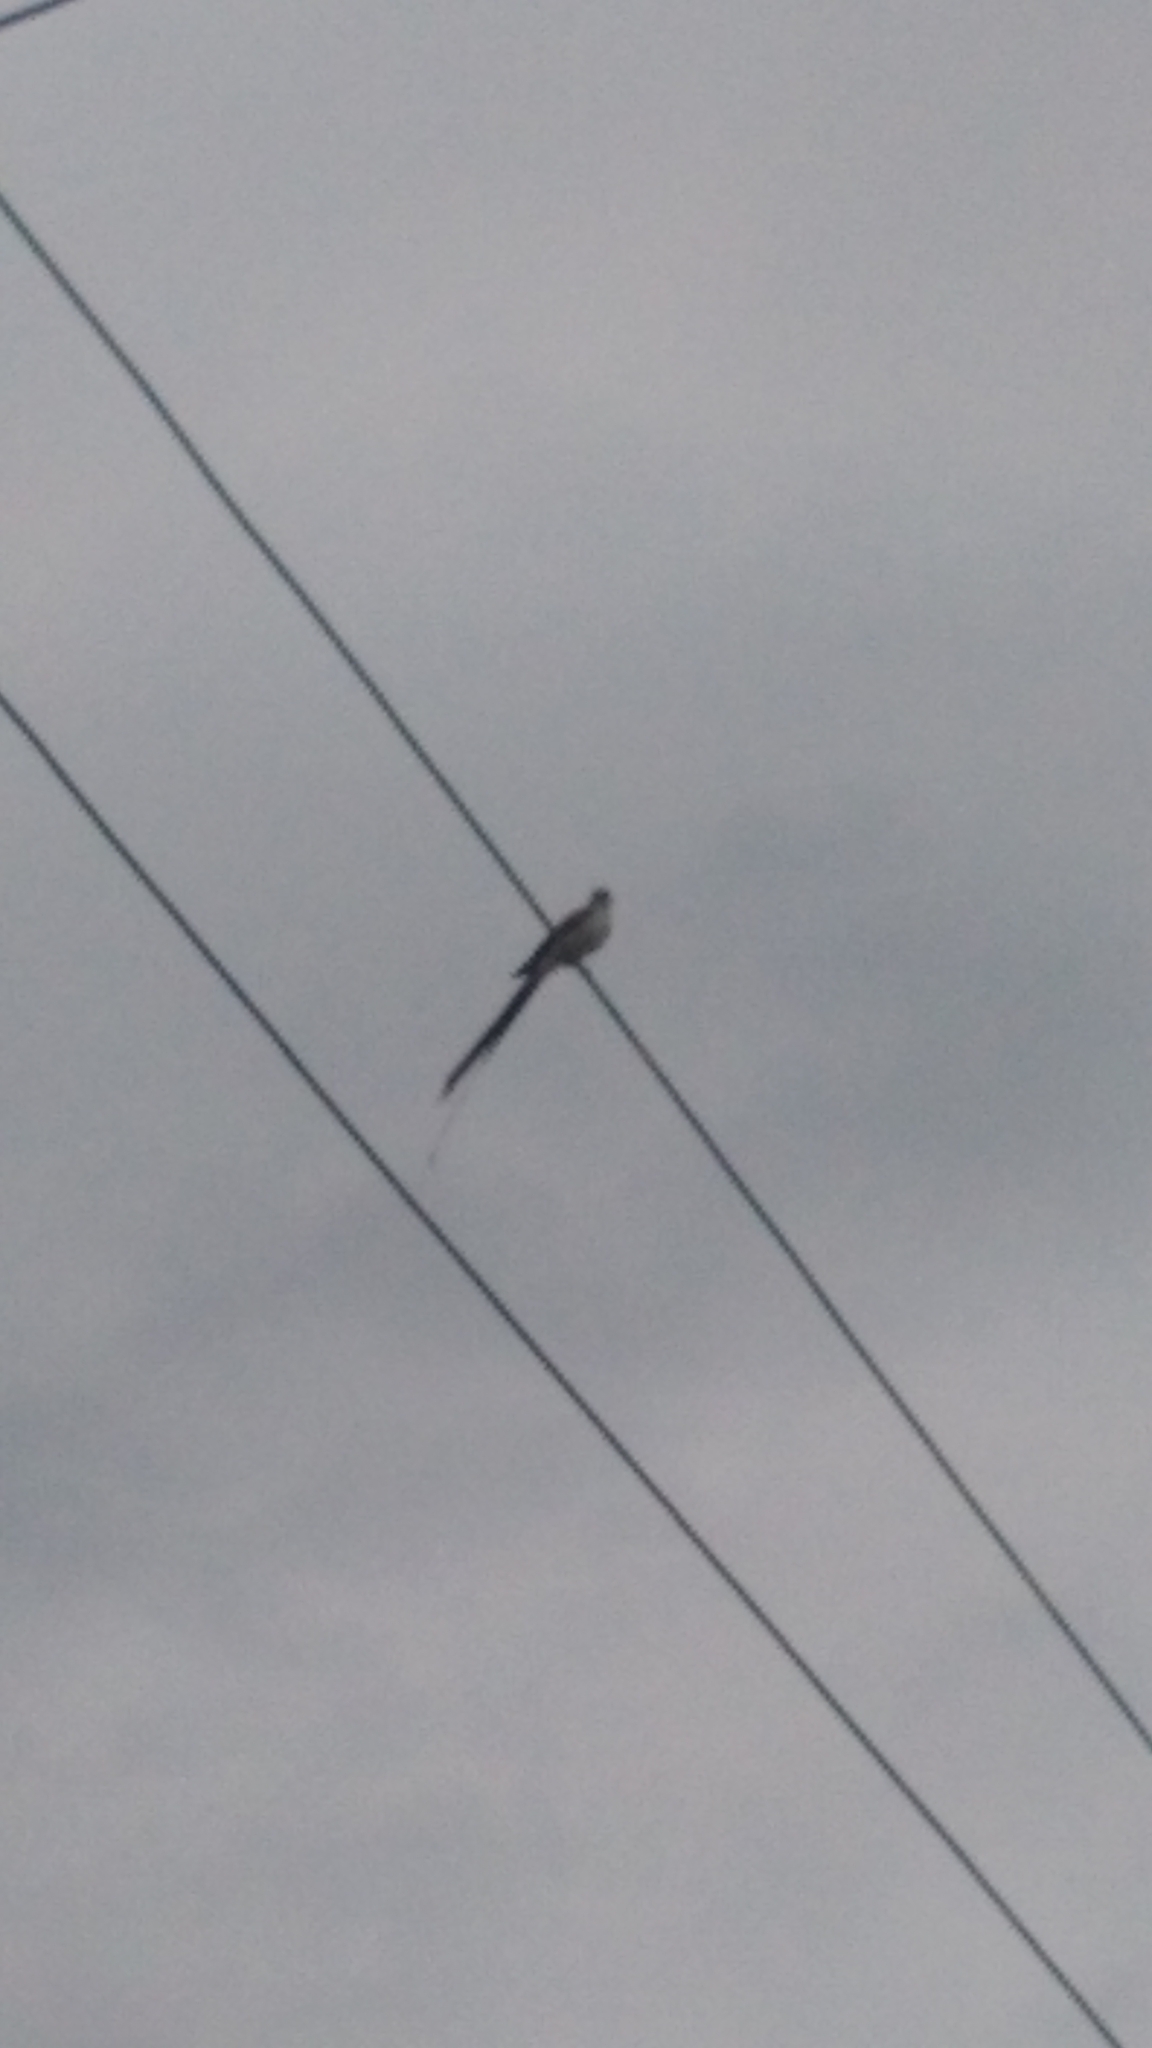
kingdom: Animalia
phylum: Chordata
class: Aves
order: Passeriformes
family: Tyrannidae
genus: Tyrannus
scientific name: Tyrannus savana
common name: Fork-tailed flycatcher
